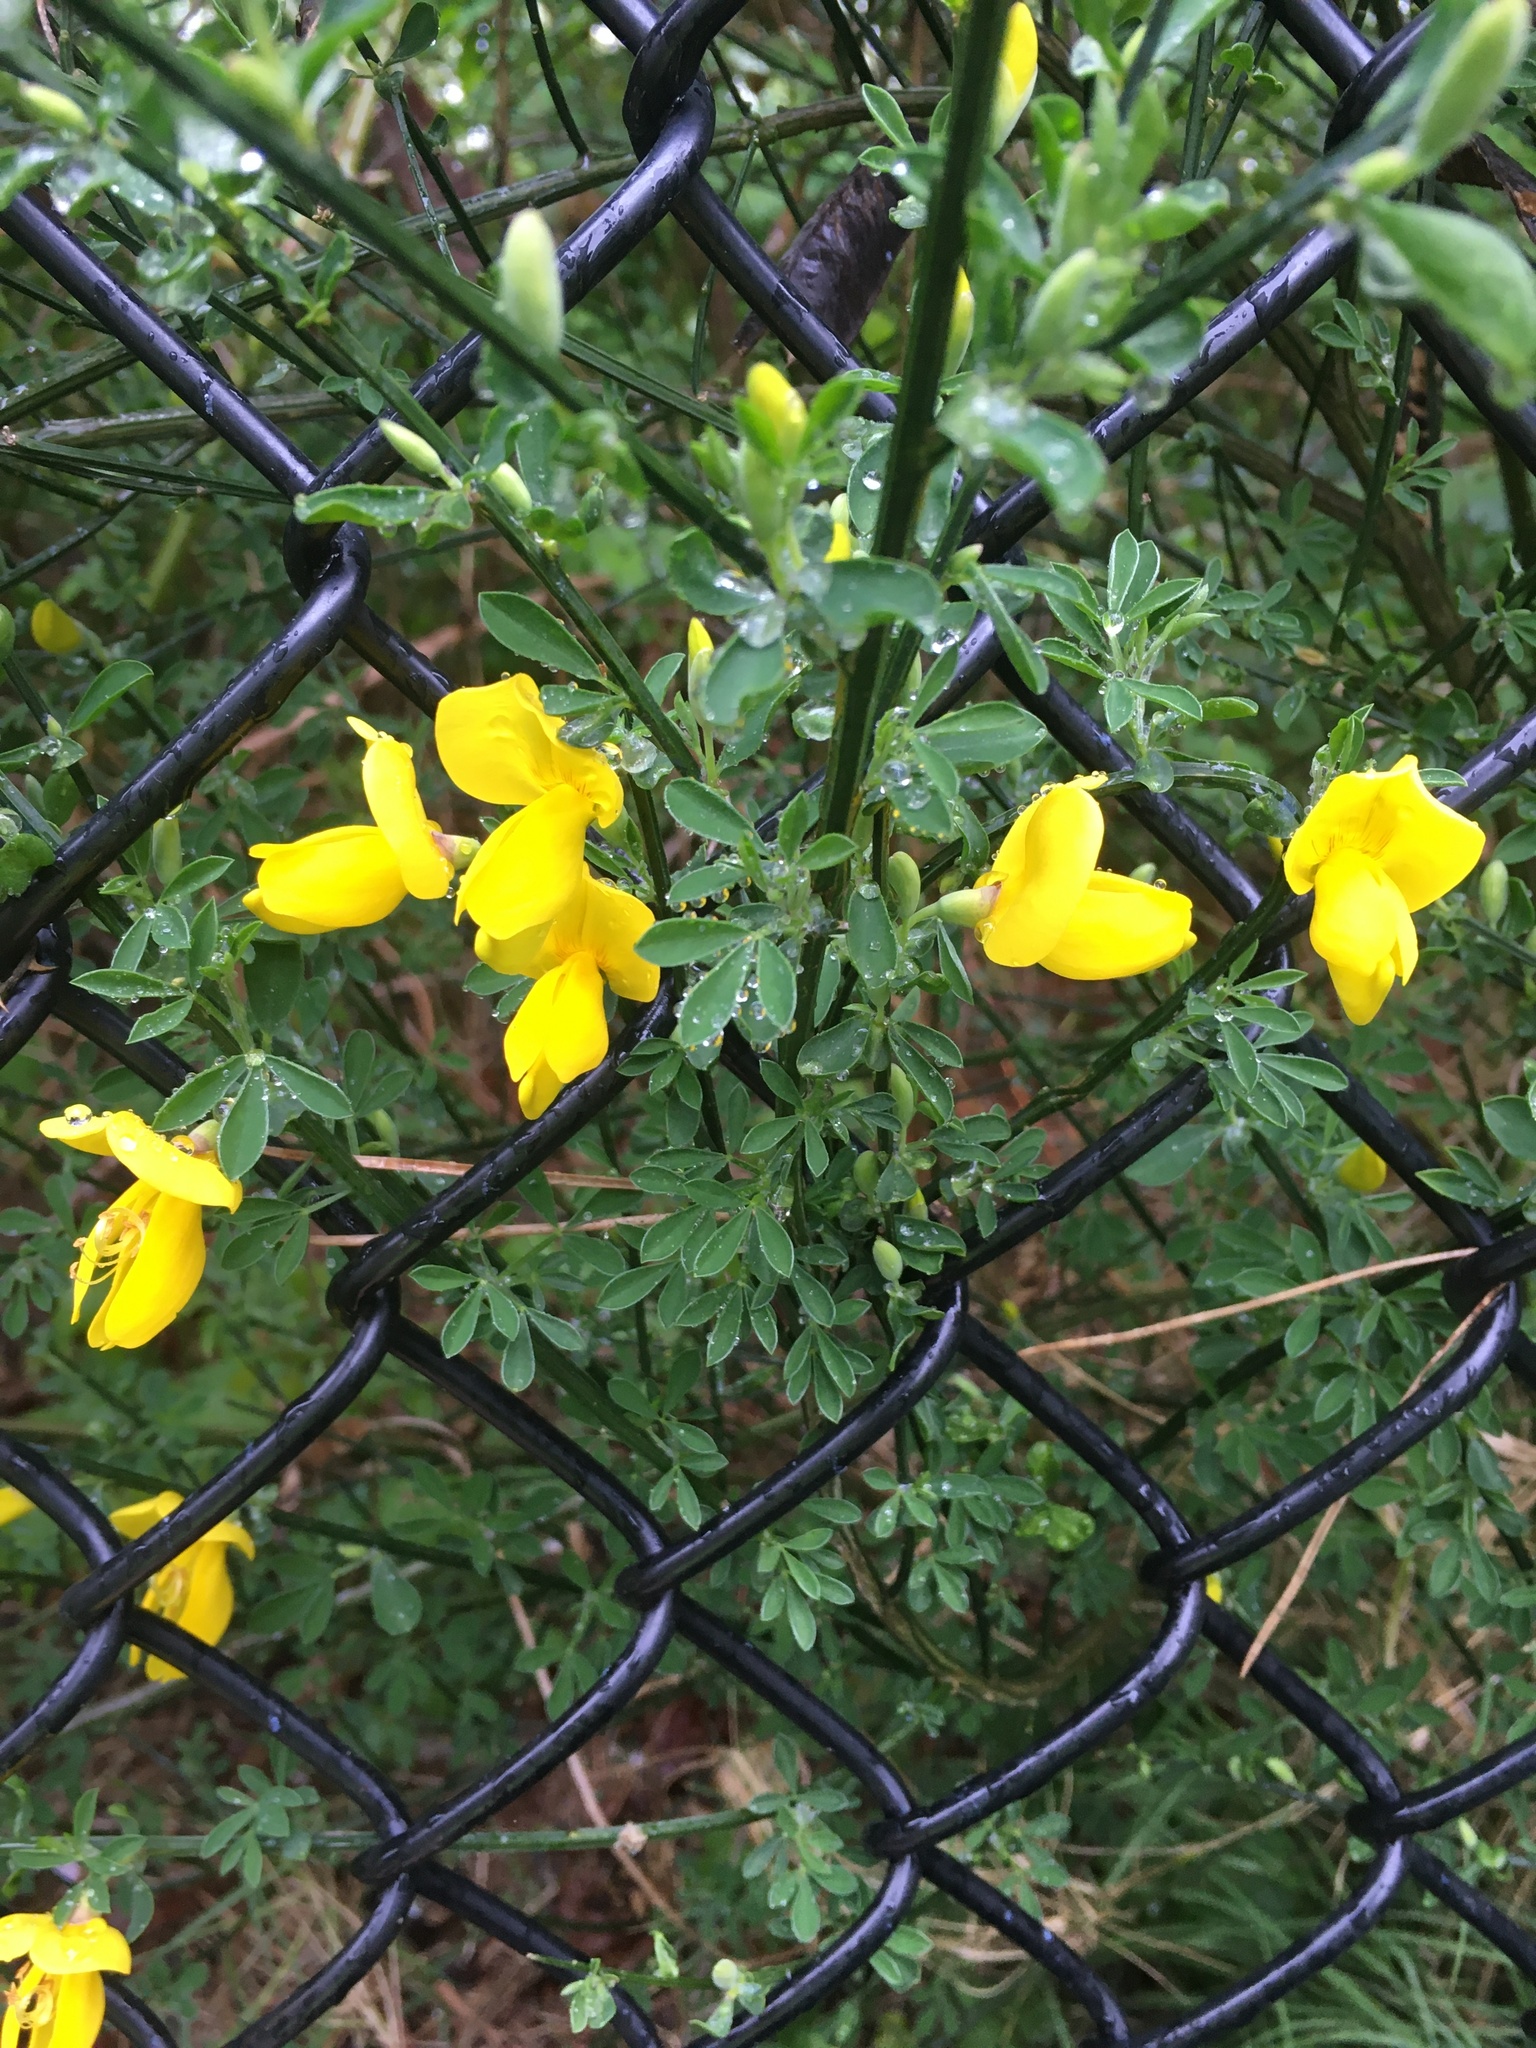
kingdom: Plantae
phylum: Tracheophyta
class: Magnoliopsida
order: Fabales
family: Fabaceae
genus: Cytisus
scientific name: Cytisus scoparius
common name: Scotch broom
